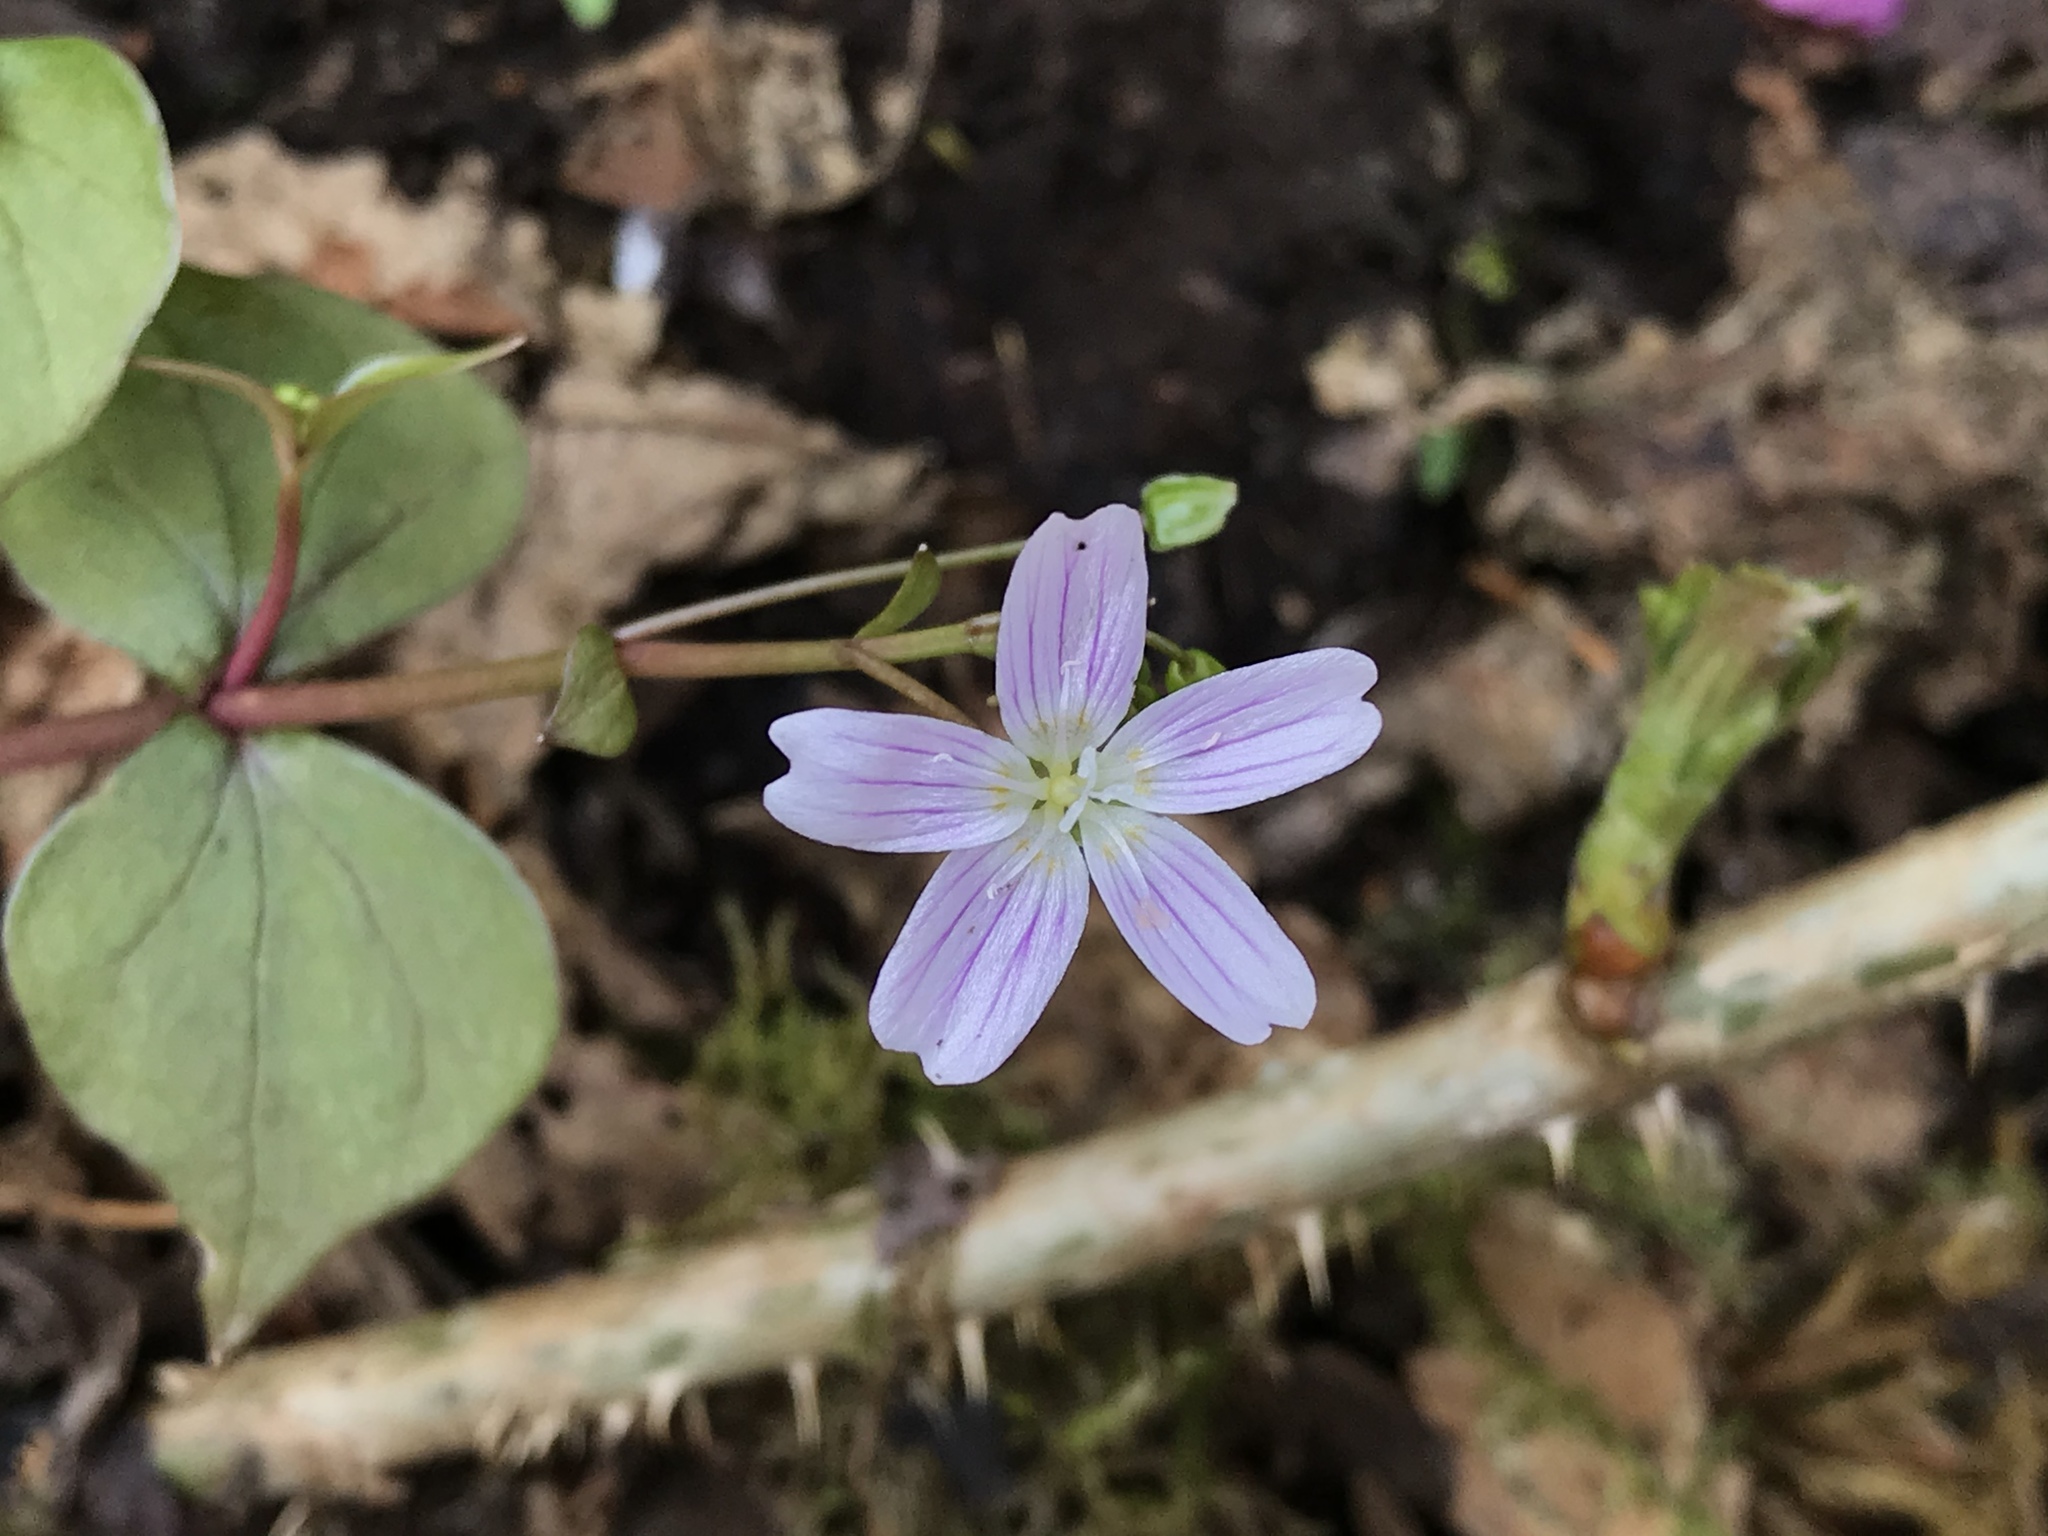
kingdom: Plantae
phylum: Tracheophyta
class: Magnoliopsida
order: Caryophyllales
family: Montiaceae
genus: Claytonia
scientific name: Claytonia sibirica
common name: Pink purslane
